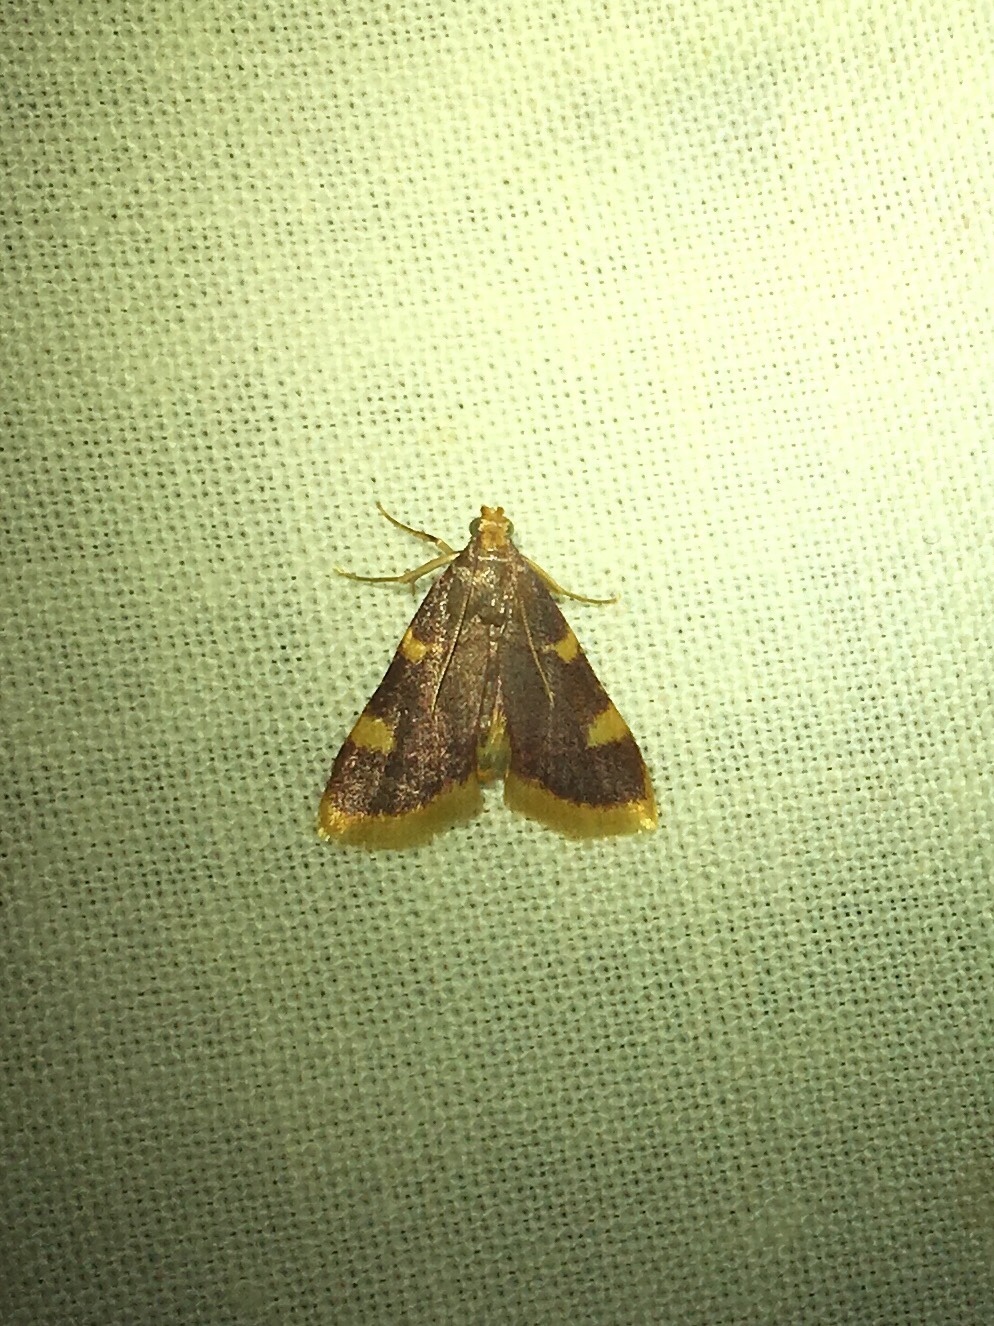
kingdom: Animalia
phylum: Arthropoda
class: Insecta
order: Lepidoptera
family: Pyralidae
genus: Hypsopygia
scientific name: Hypsopygia costalis
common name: Gold triangle
